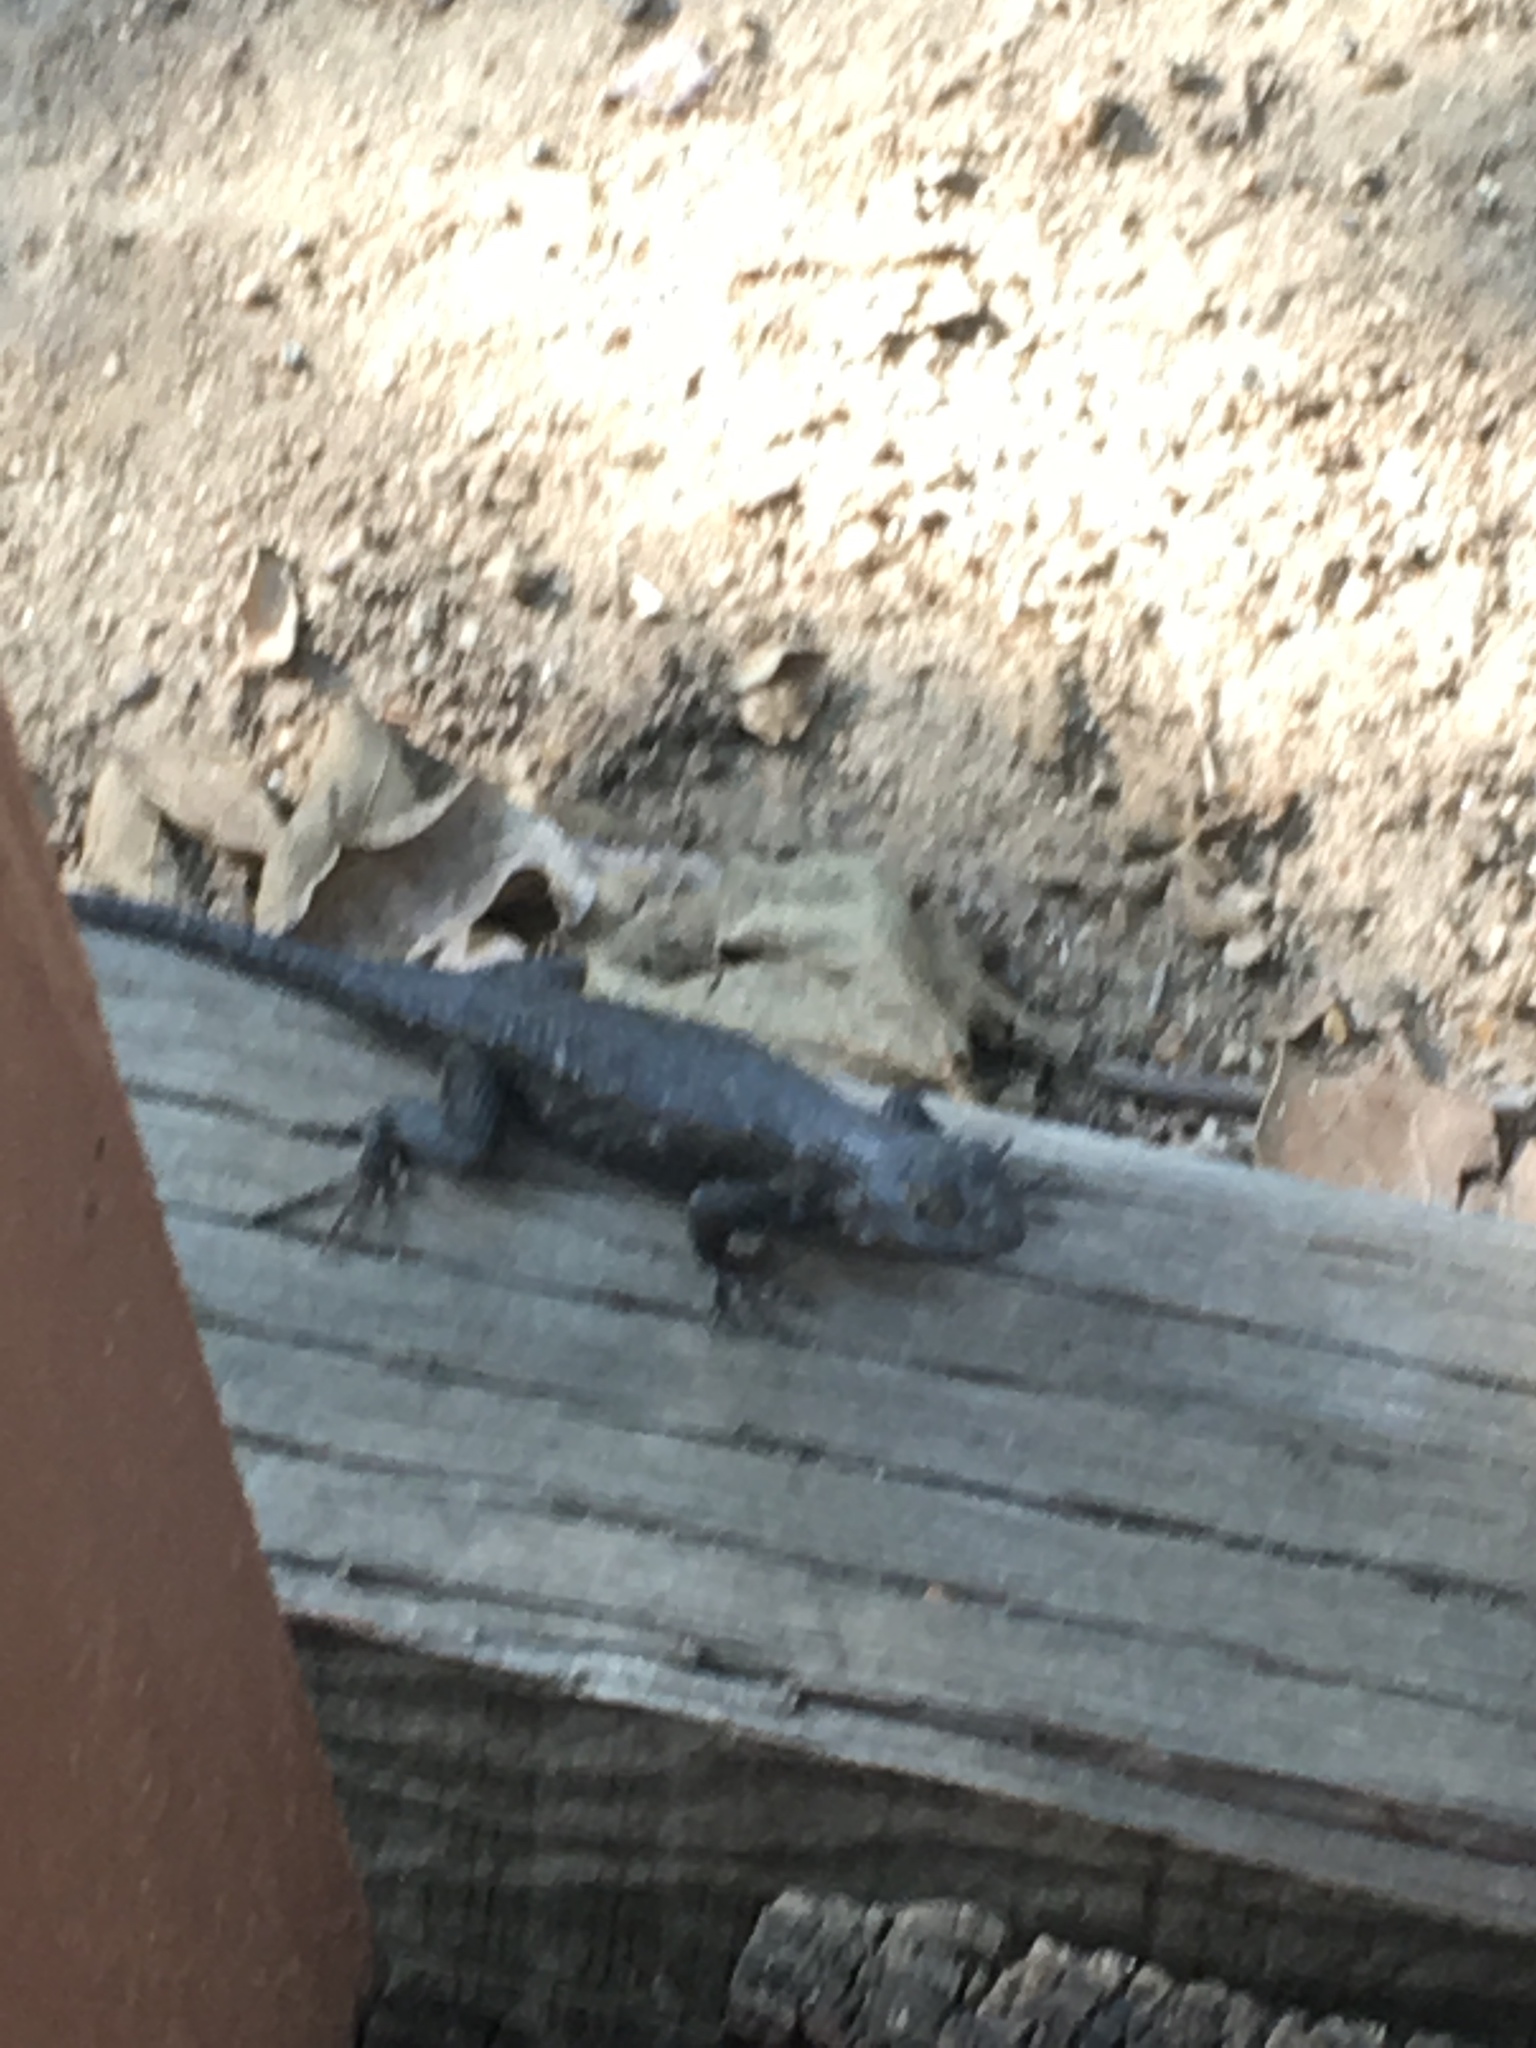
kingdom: Animalia
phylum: Chordata
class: Squamata
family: Phrynosomatidae
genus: Sceloporus
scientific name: Sceloporus occidentalis
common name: Western fence lizard
